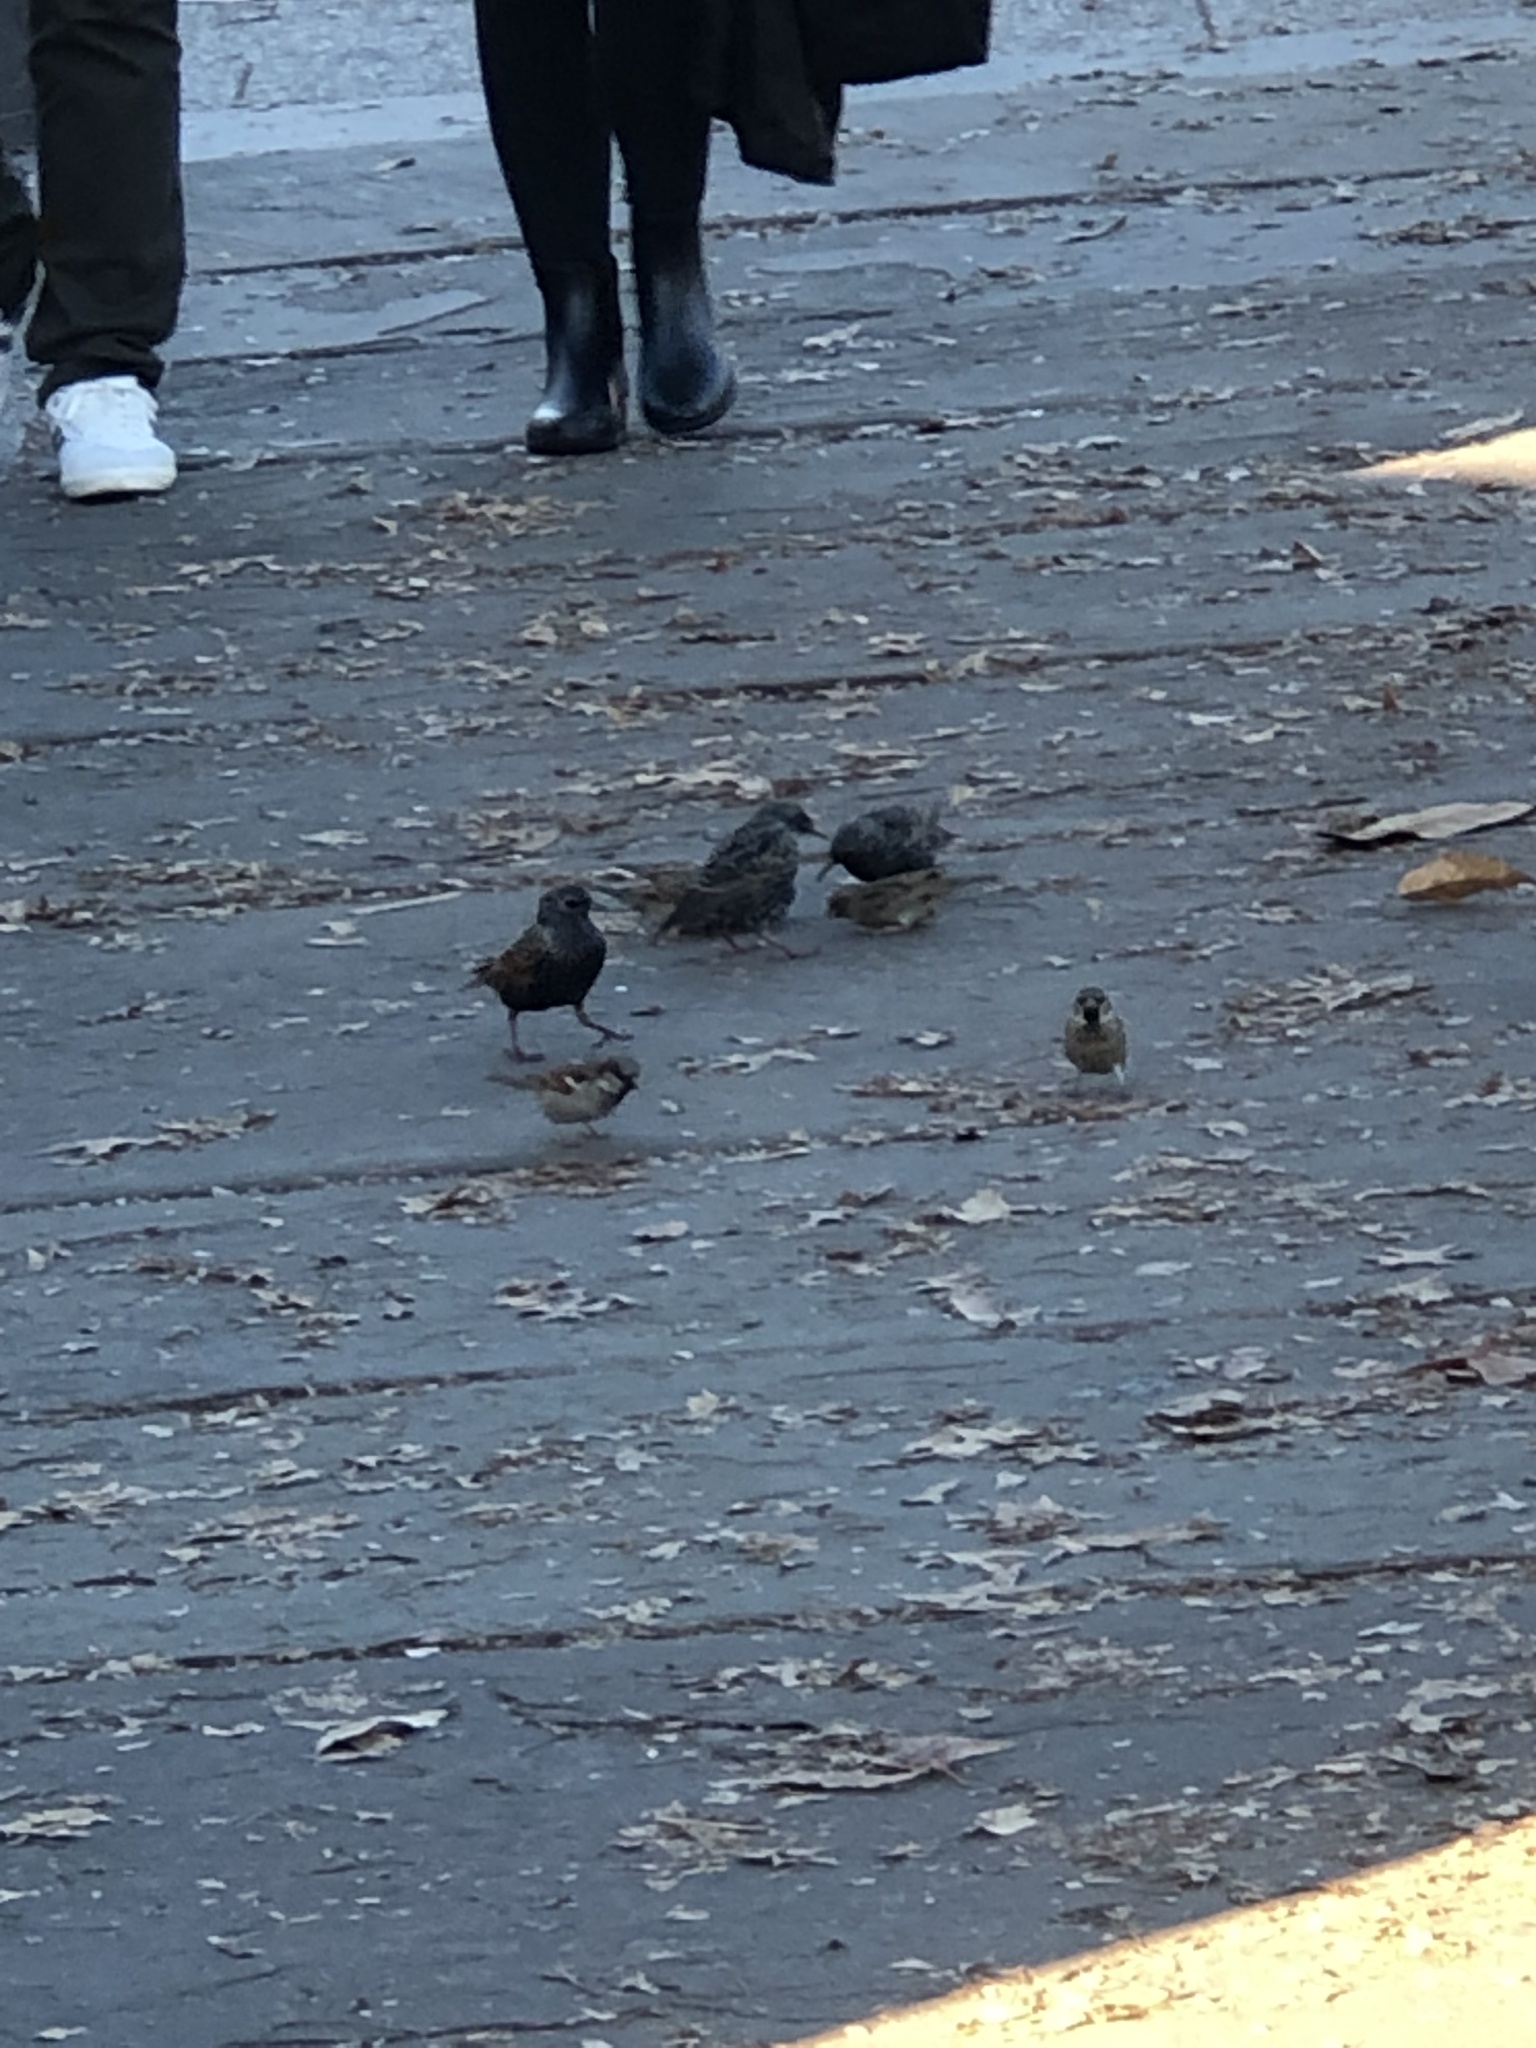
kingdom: Animalia
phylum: Chordata
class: Aves
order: Passeriformes
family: Sturnidae
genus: Sturnus
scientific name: Sturnus vulgaris
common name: Common starling
